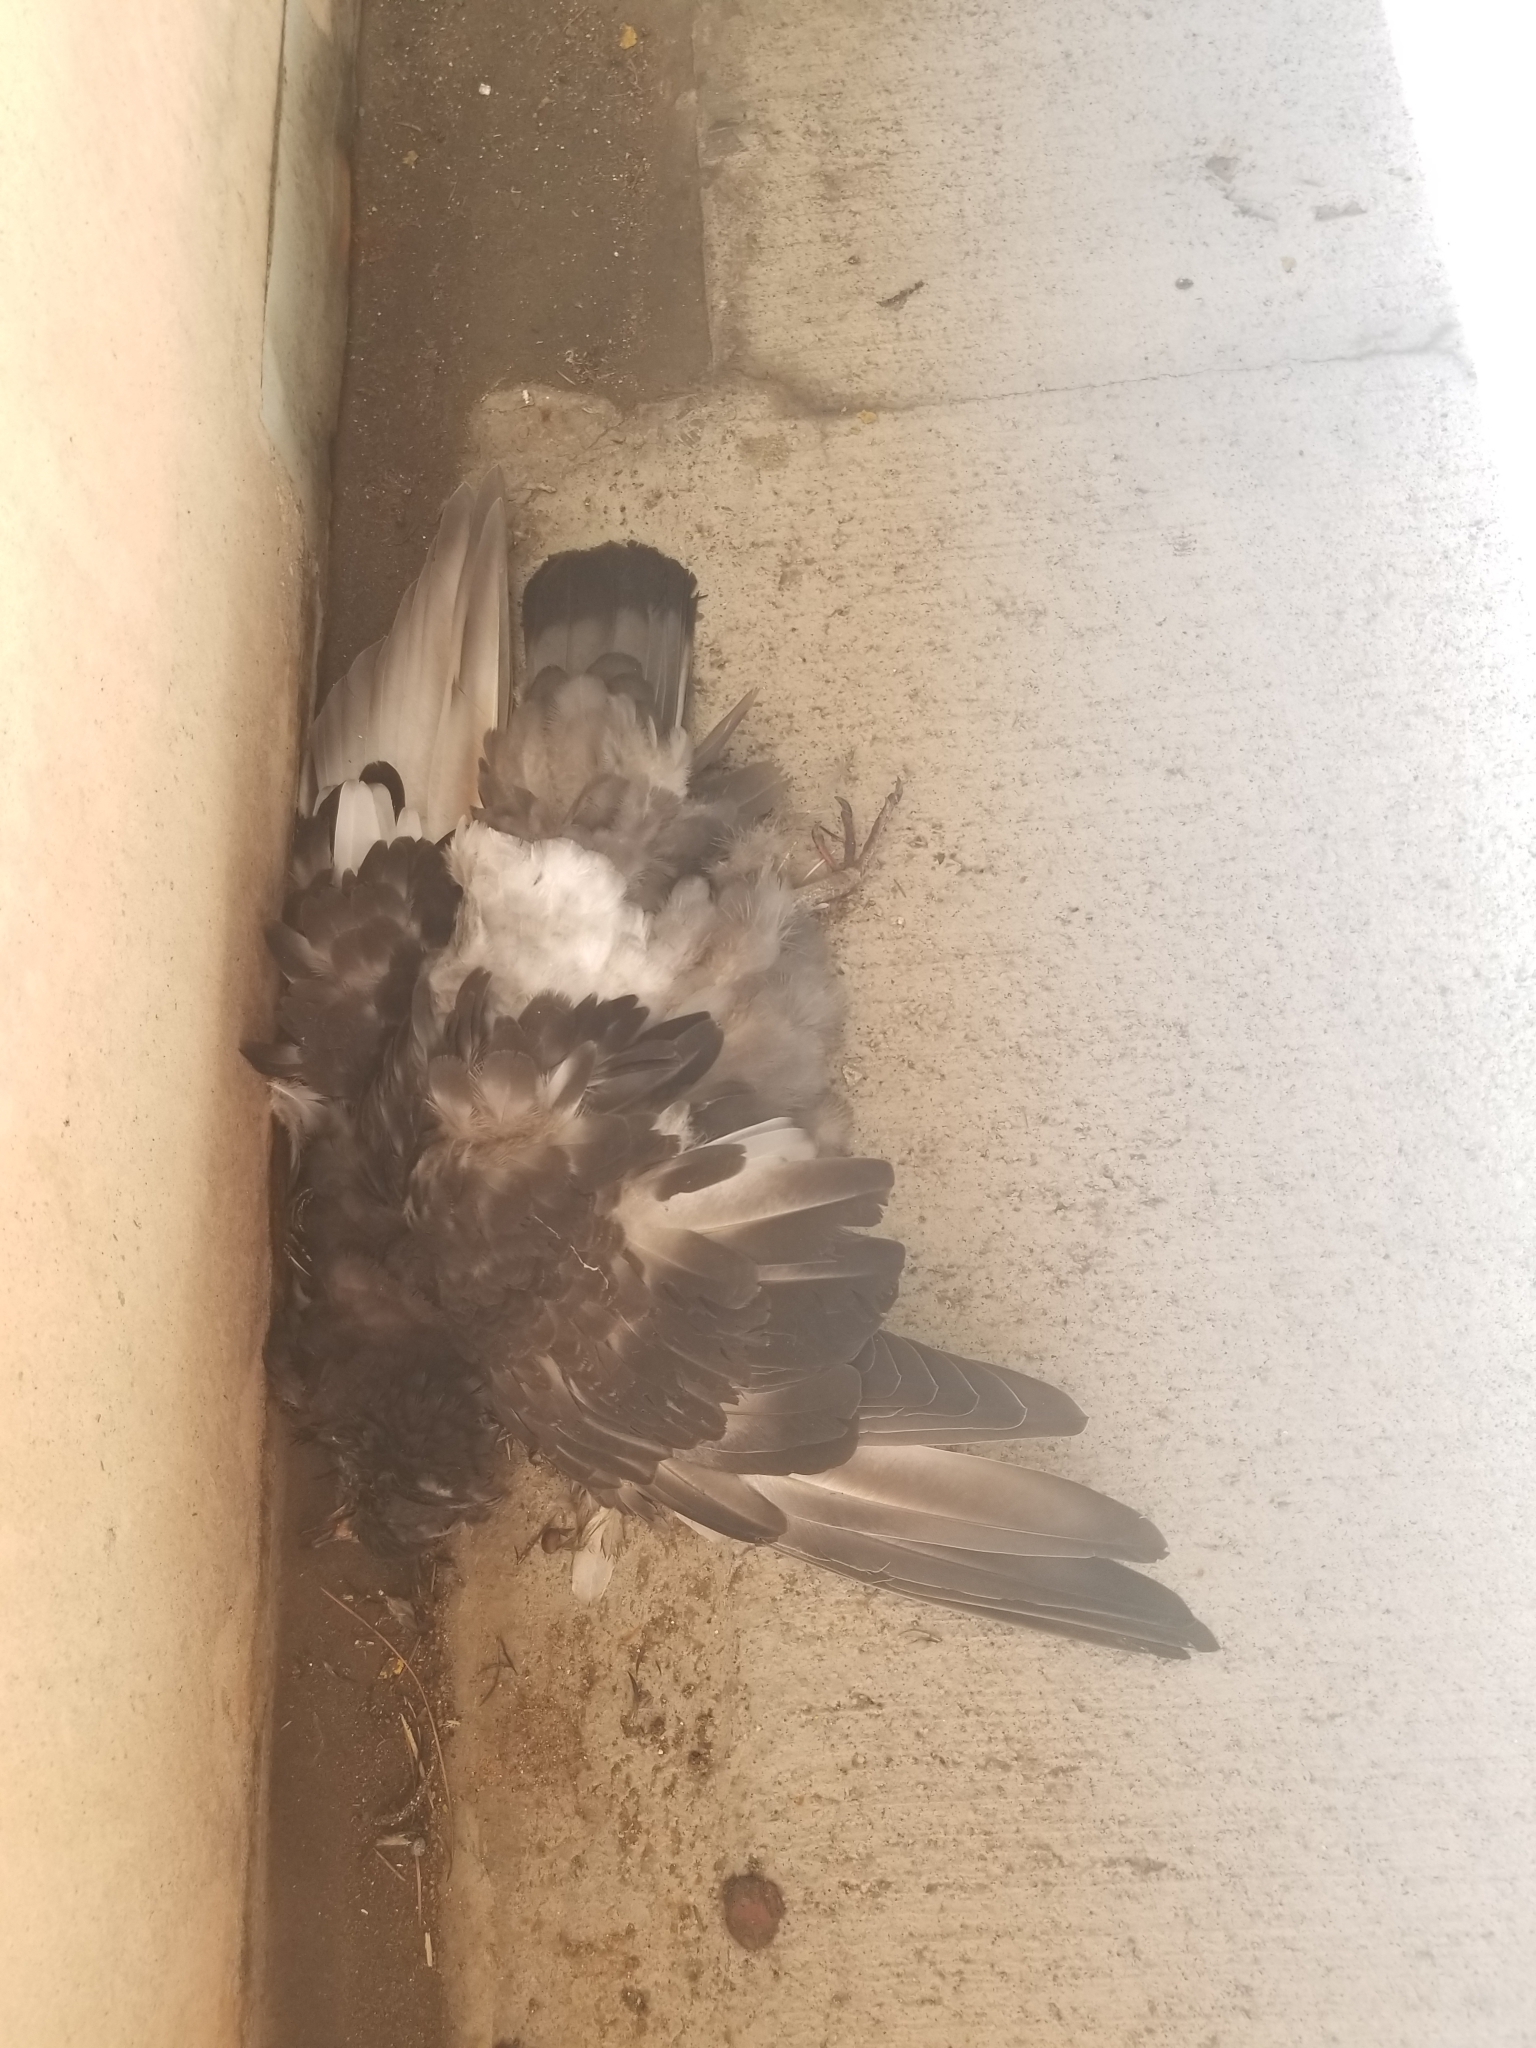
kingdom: Animalia
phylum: Chordata
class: Aves
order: Columbiformes
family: Columbidae
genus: Columba
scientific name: Columba livia
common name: Rock pigeon
